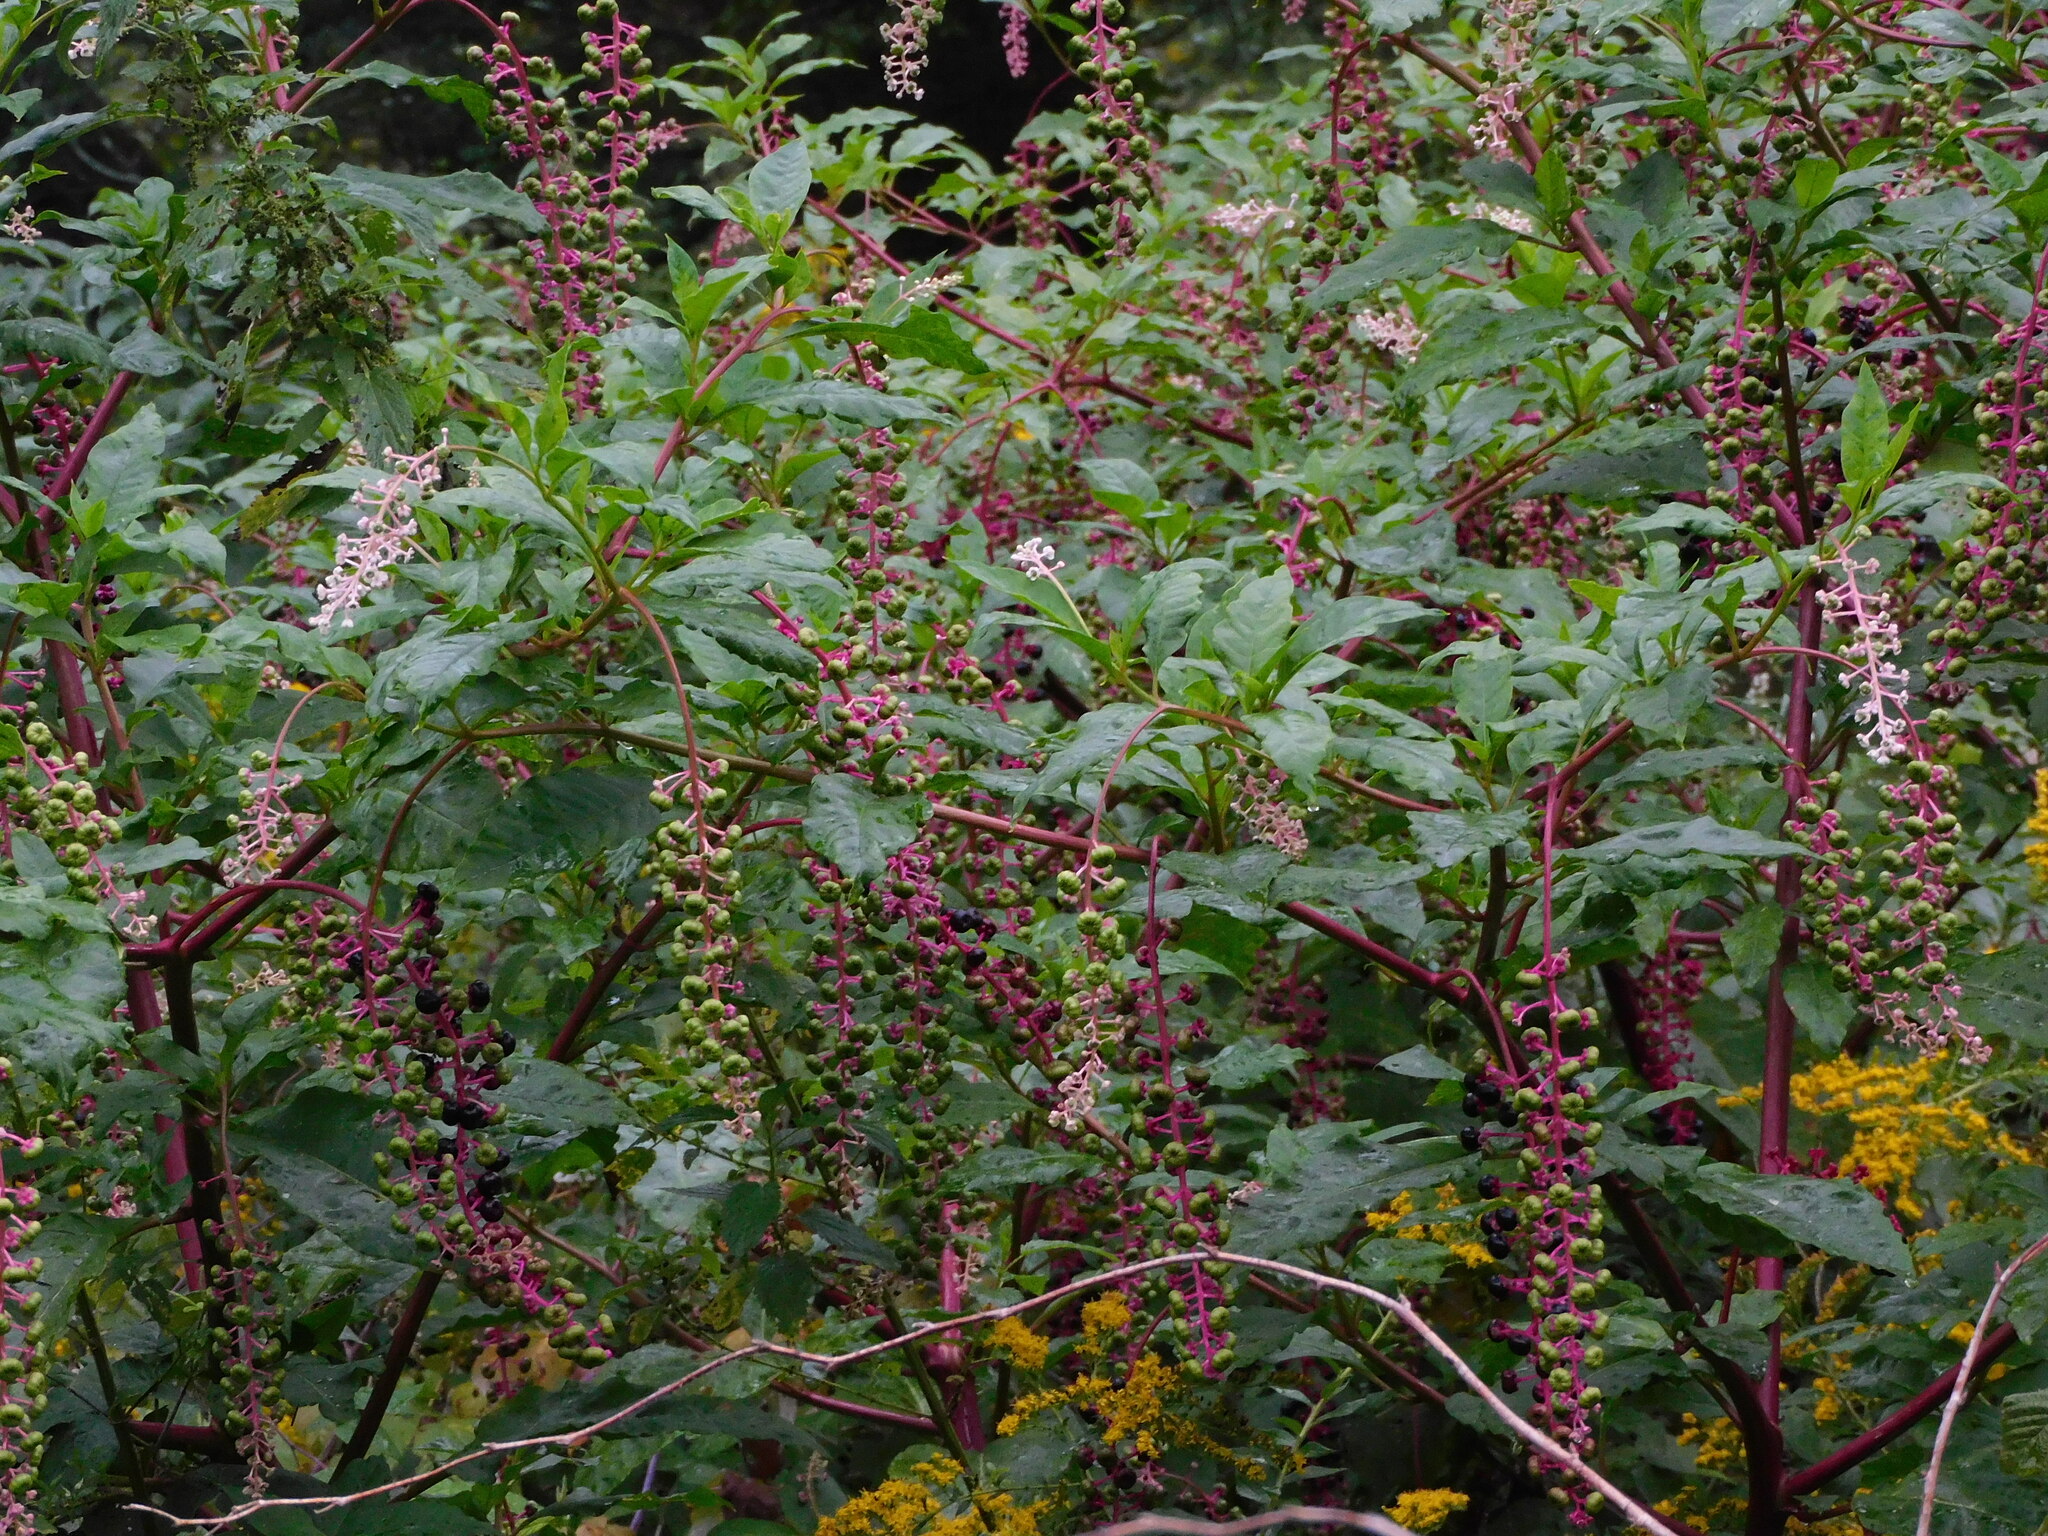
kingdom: Plantae
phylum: Tracheophyta
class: Magnoliopsida
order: Caryophyllales
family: Phytolaccaceae
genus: Phytolacca
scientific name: Phytolacca americana
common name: American pokeweed
